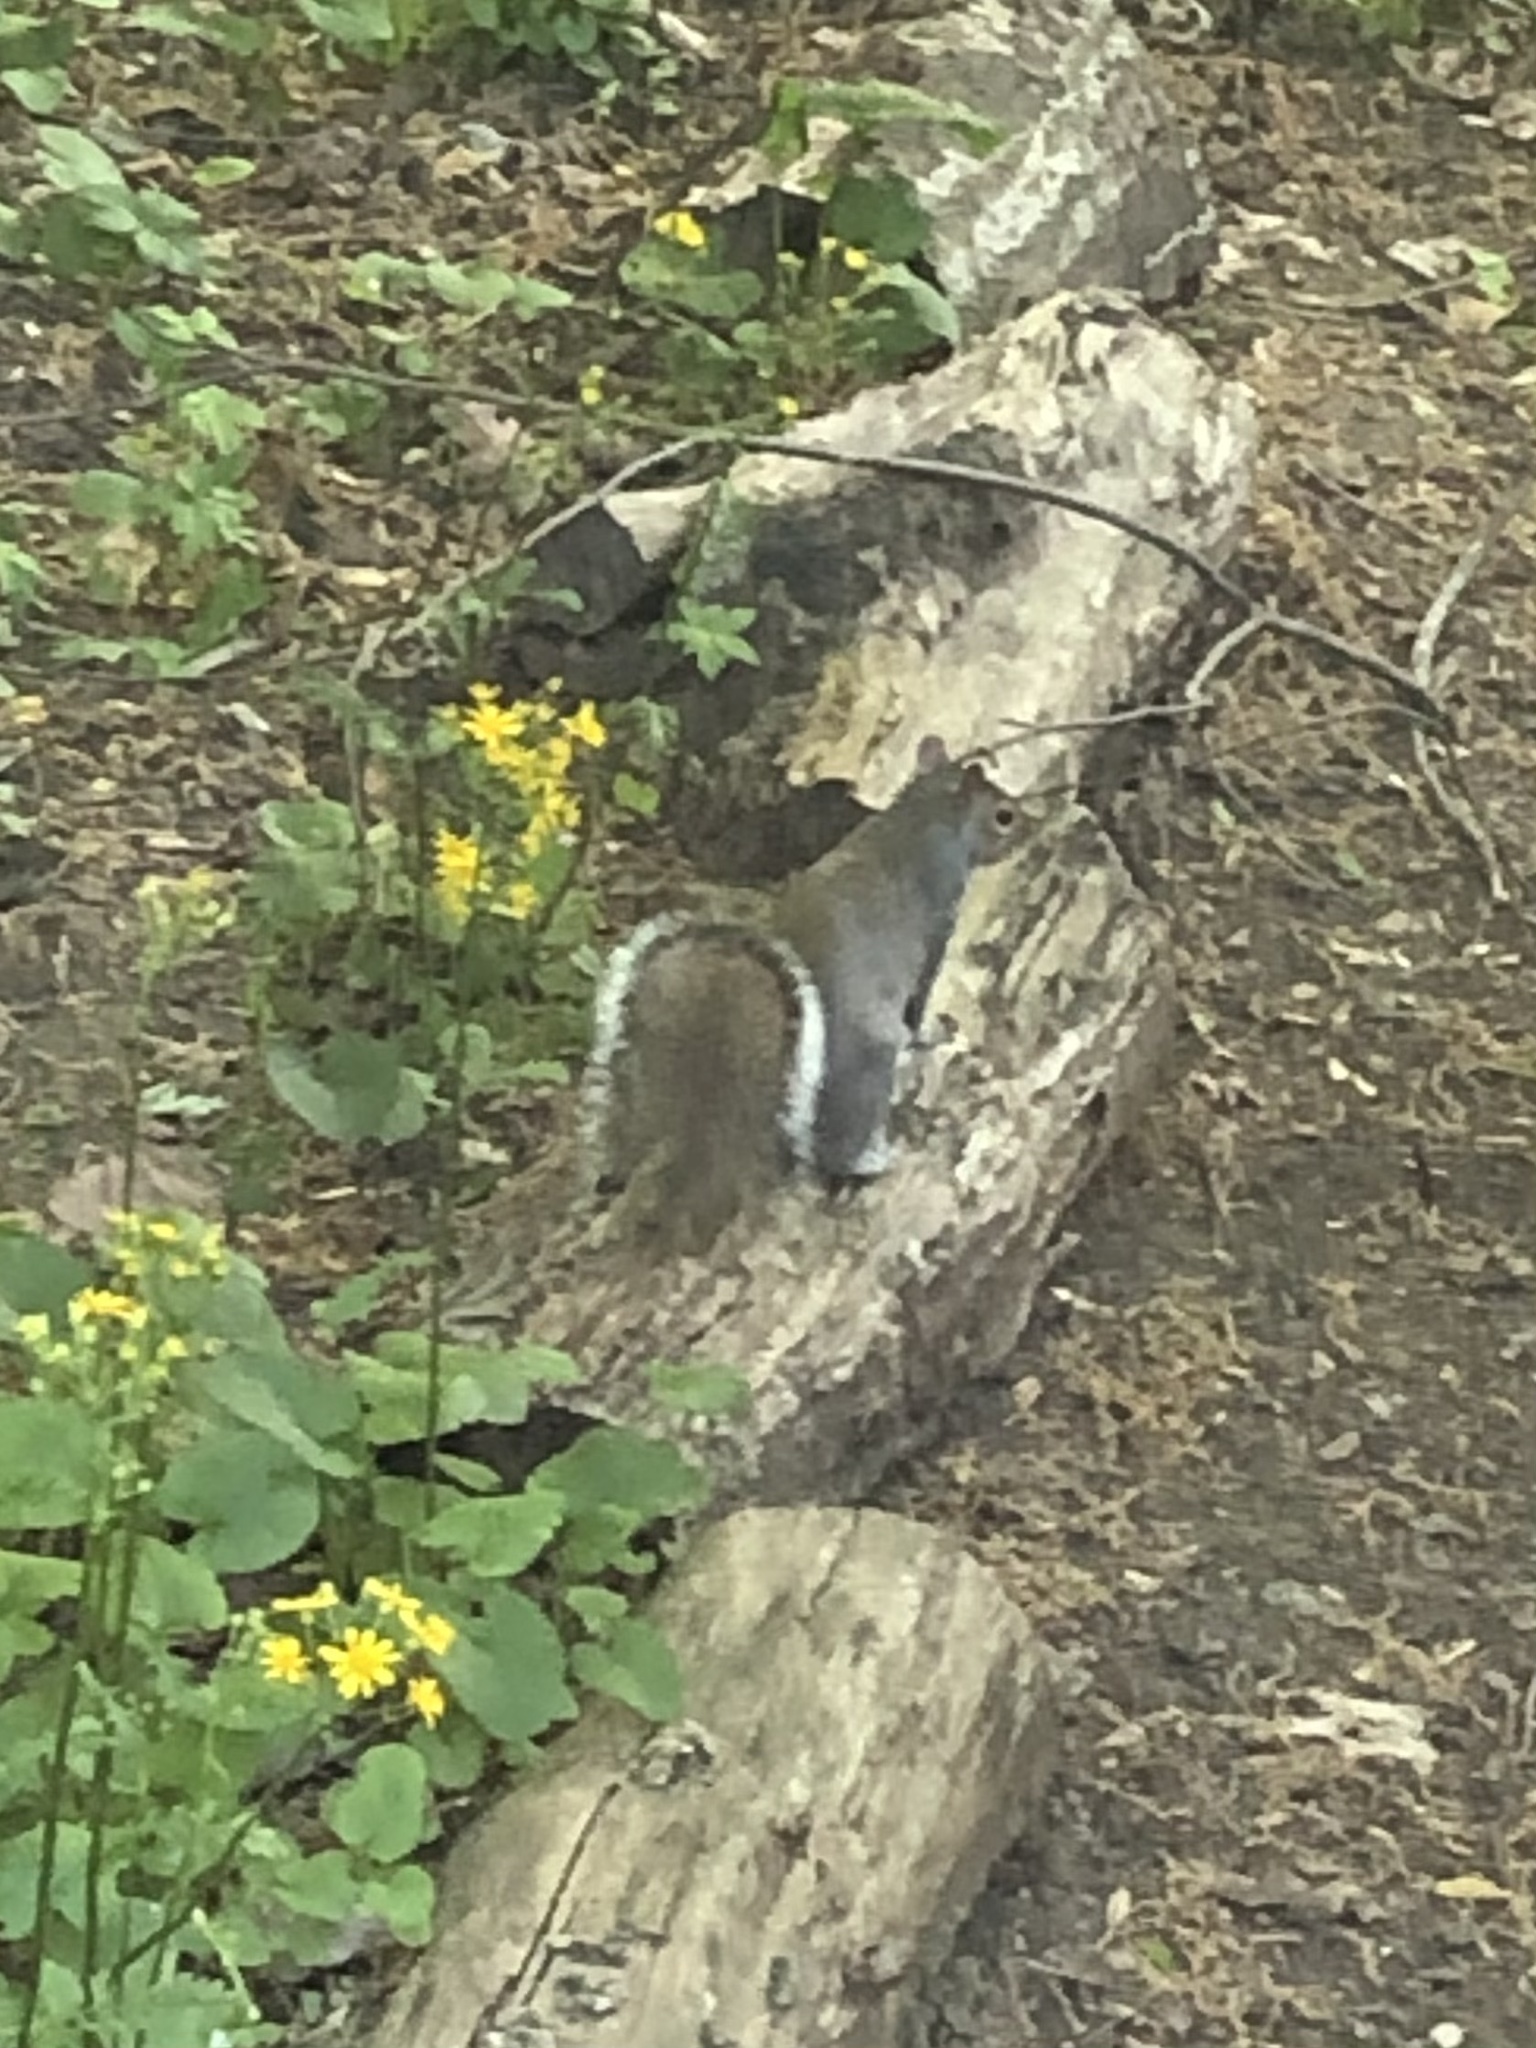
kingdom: Animalia
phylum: Chordata
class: Mammalia
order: Rodentia
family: Sciuridae
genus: Sciurus
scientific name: Sciurus carolinensis
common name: Eastern gray squirrel
